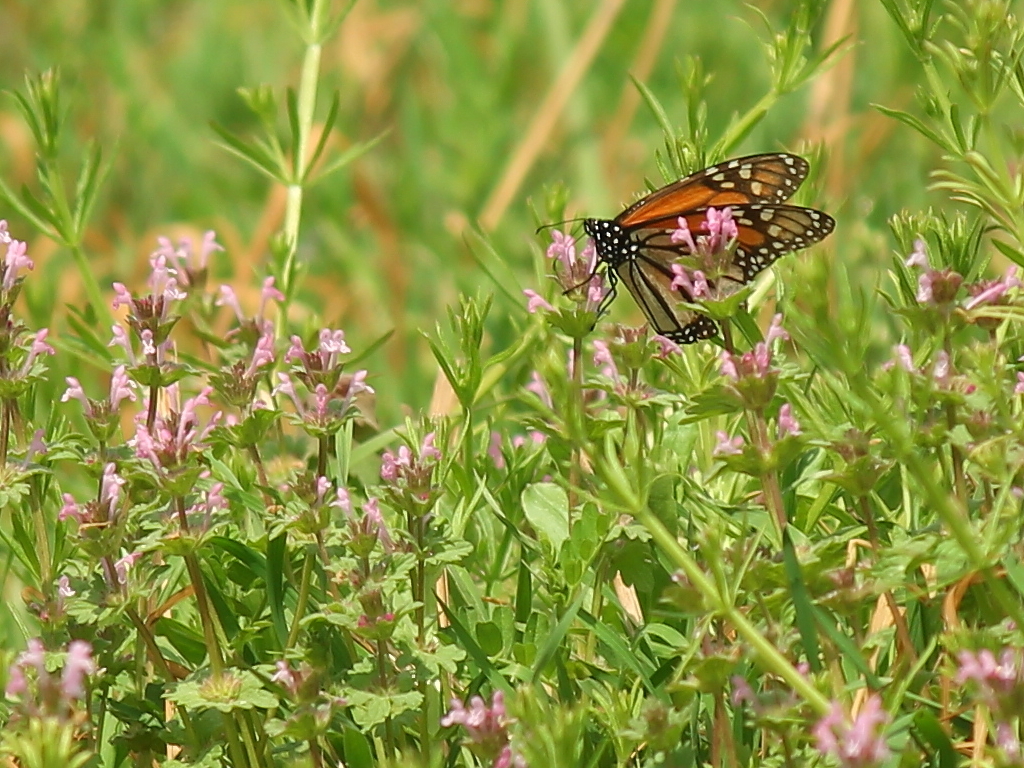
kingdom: Animalia
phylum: Arthropoda
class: Insecta
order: Lepidoptera
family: Nymphalidae
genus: Danaus
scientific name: Danaus plexippus
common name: Monarch
